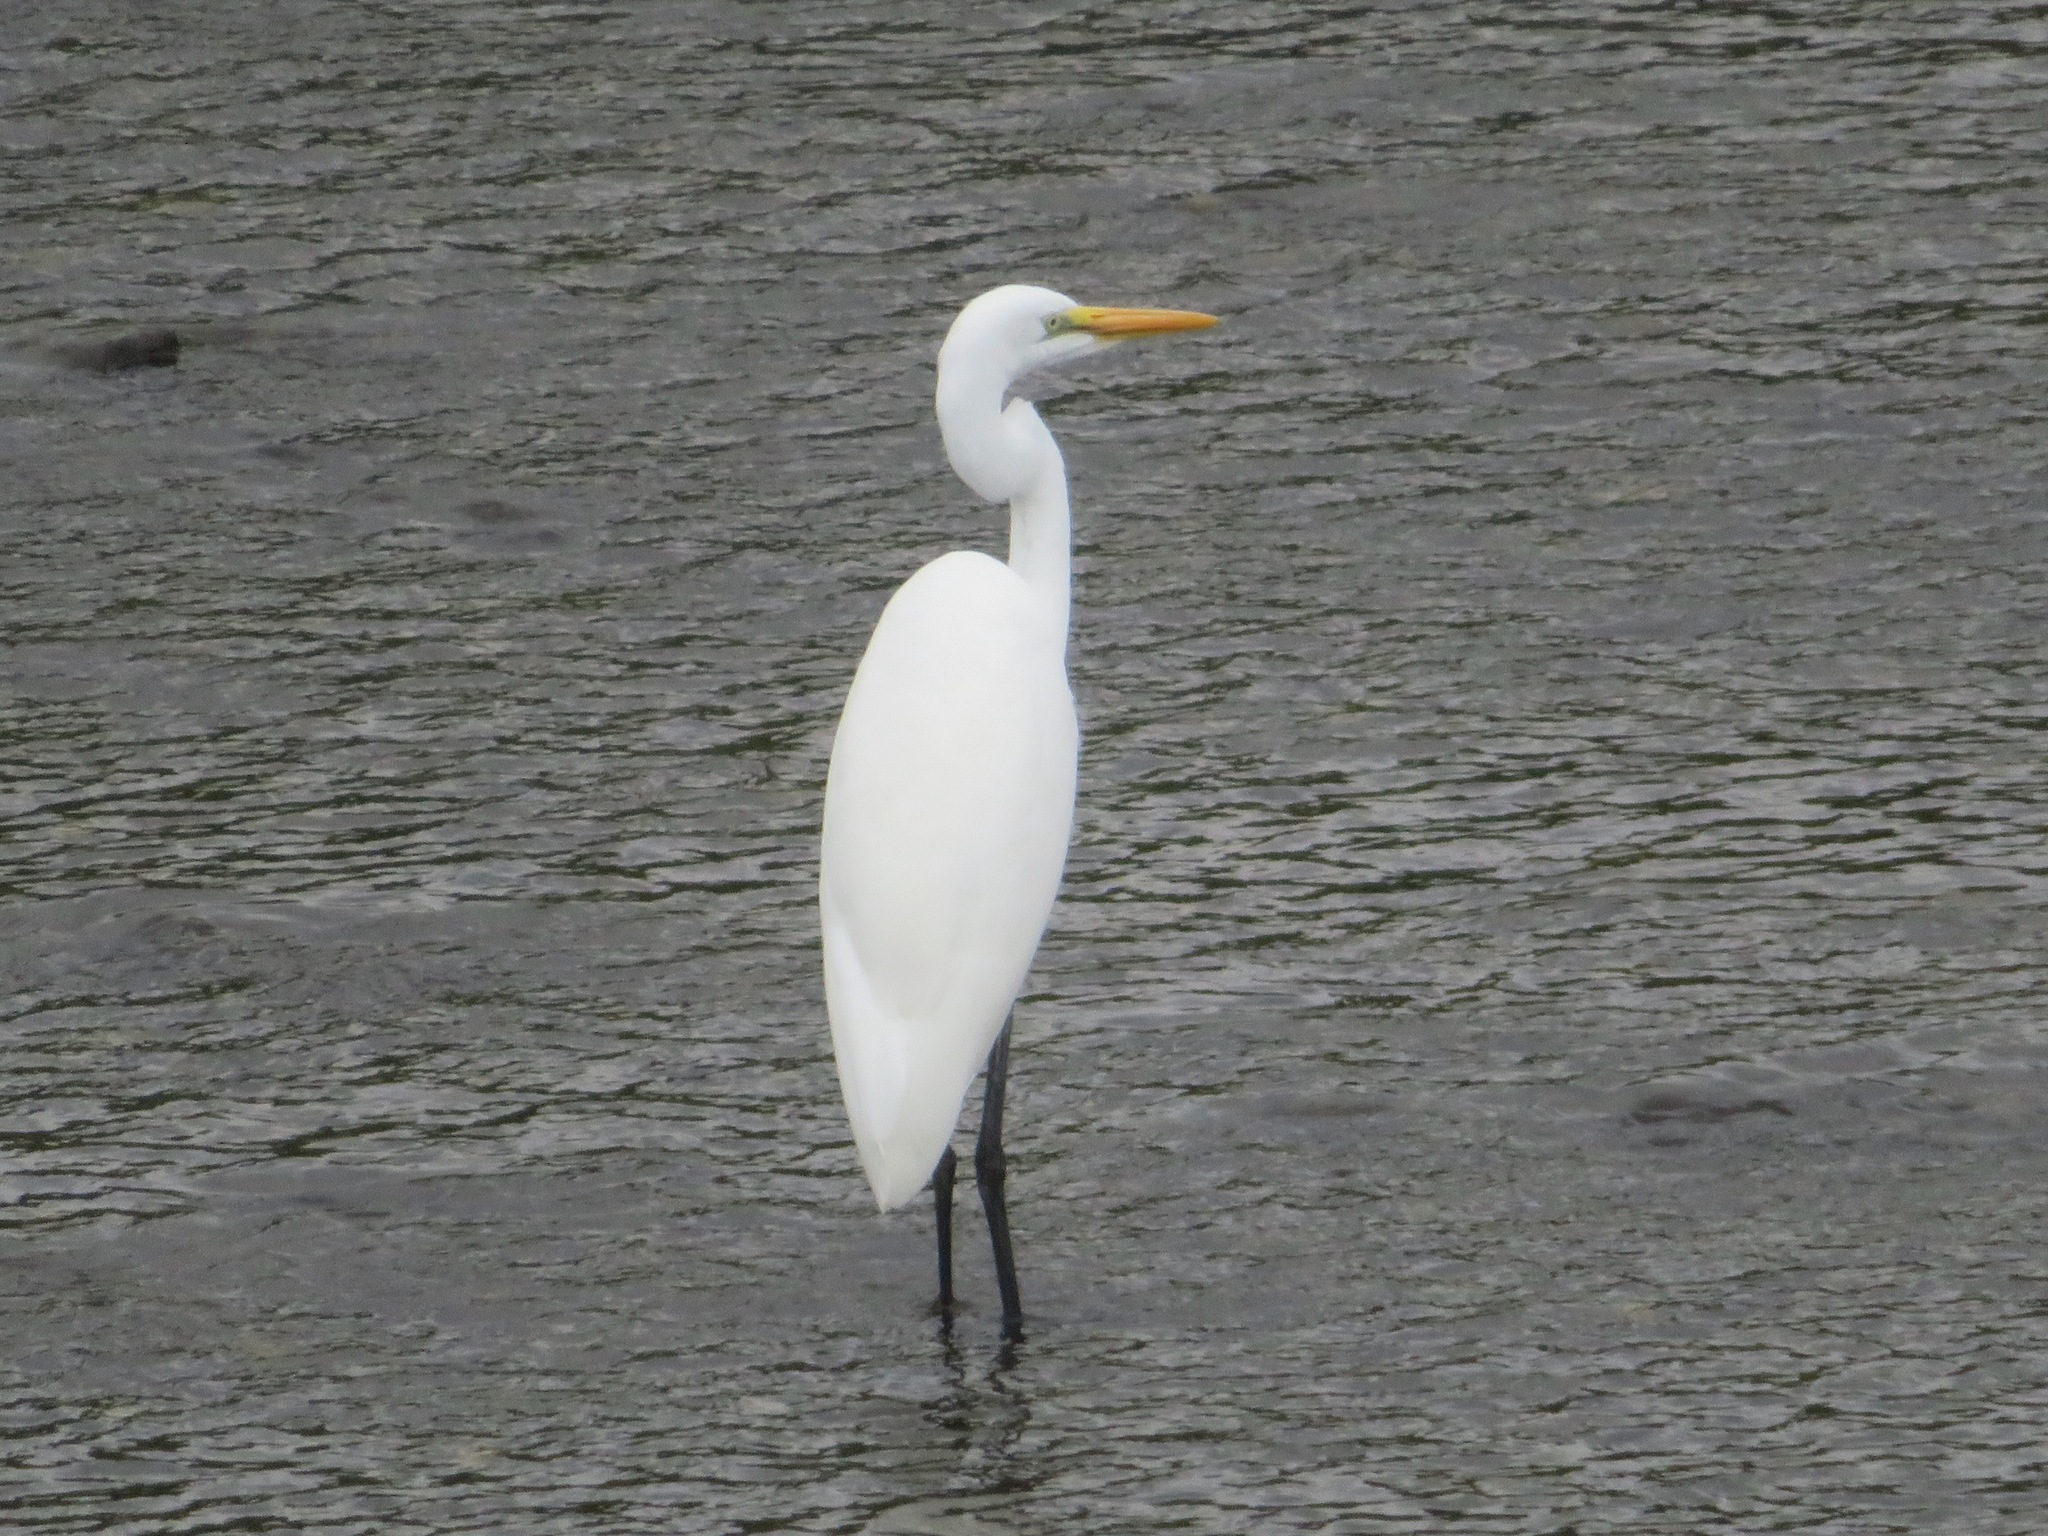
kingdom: Animalia
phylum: Chordata
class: Aves
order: Pelecaniformes
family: Ardeidae
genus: Ardea
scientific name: Ardea alba
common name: Great egret
